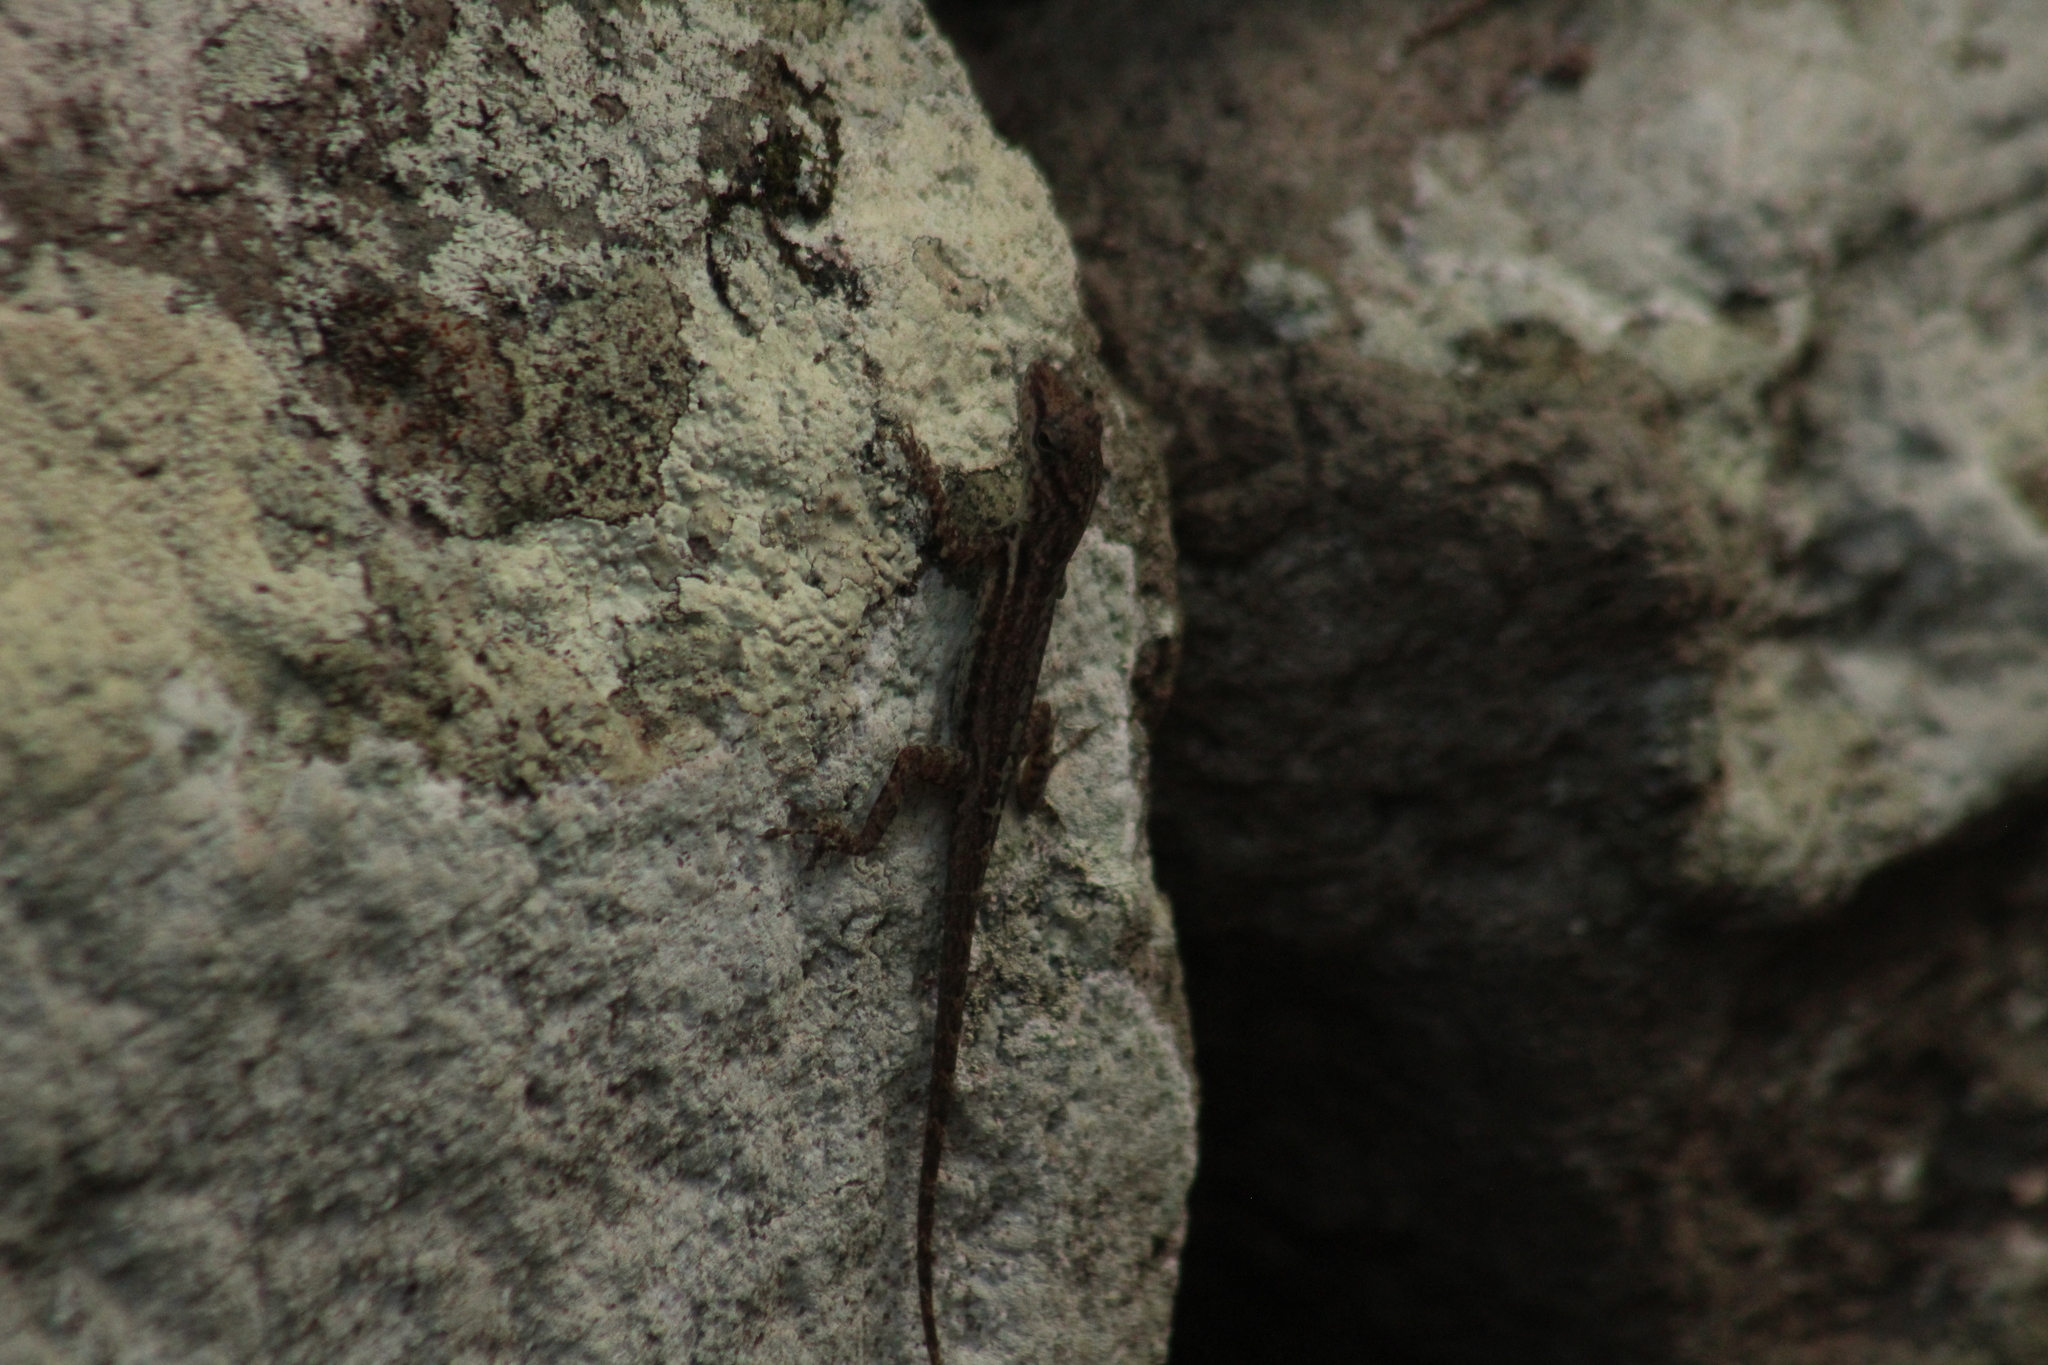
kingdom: Animalia
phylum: Chordata
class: Squamata
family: Dactyloidae
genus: Anolis
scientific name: Anolis sabanus
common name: Saba anole
